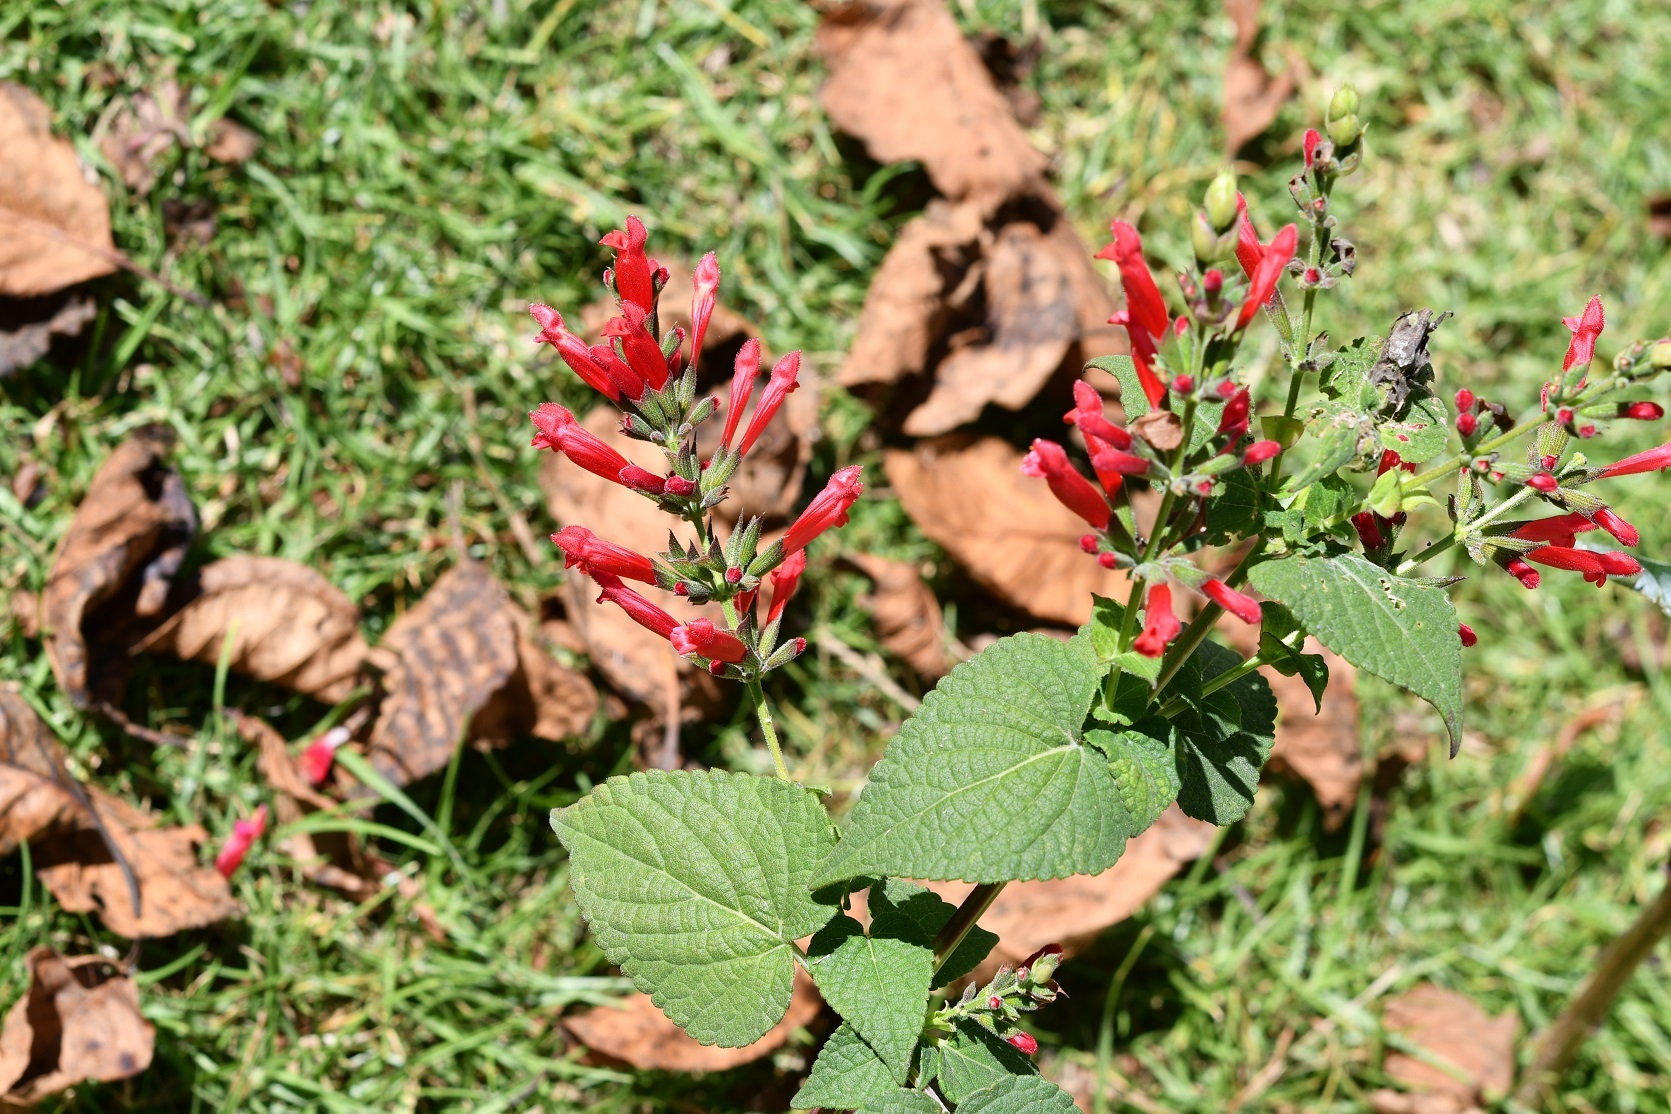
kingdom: Plantae
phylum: Tracheophyta
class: Magnoliopsida
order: Lamiales
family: Lamiaceae
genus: Salvia
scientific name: Salvia holwayi
